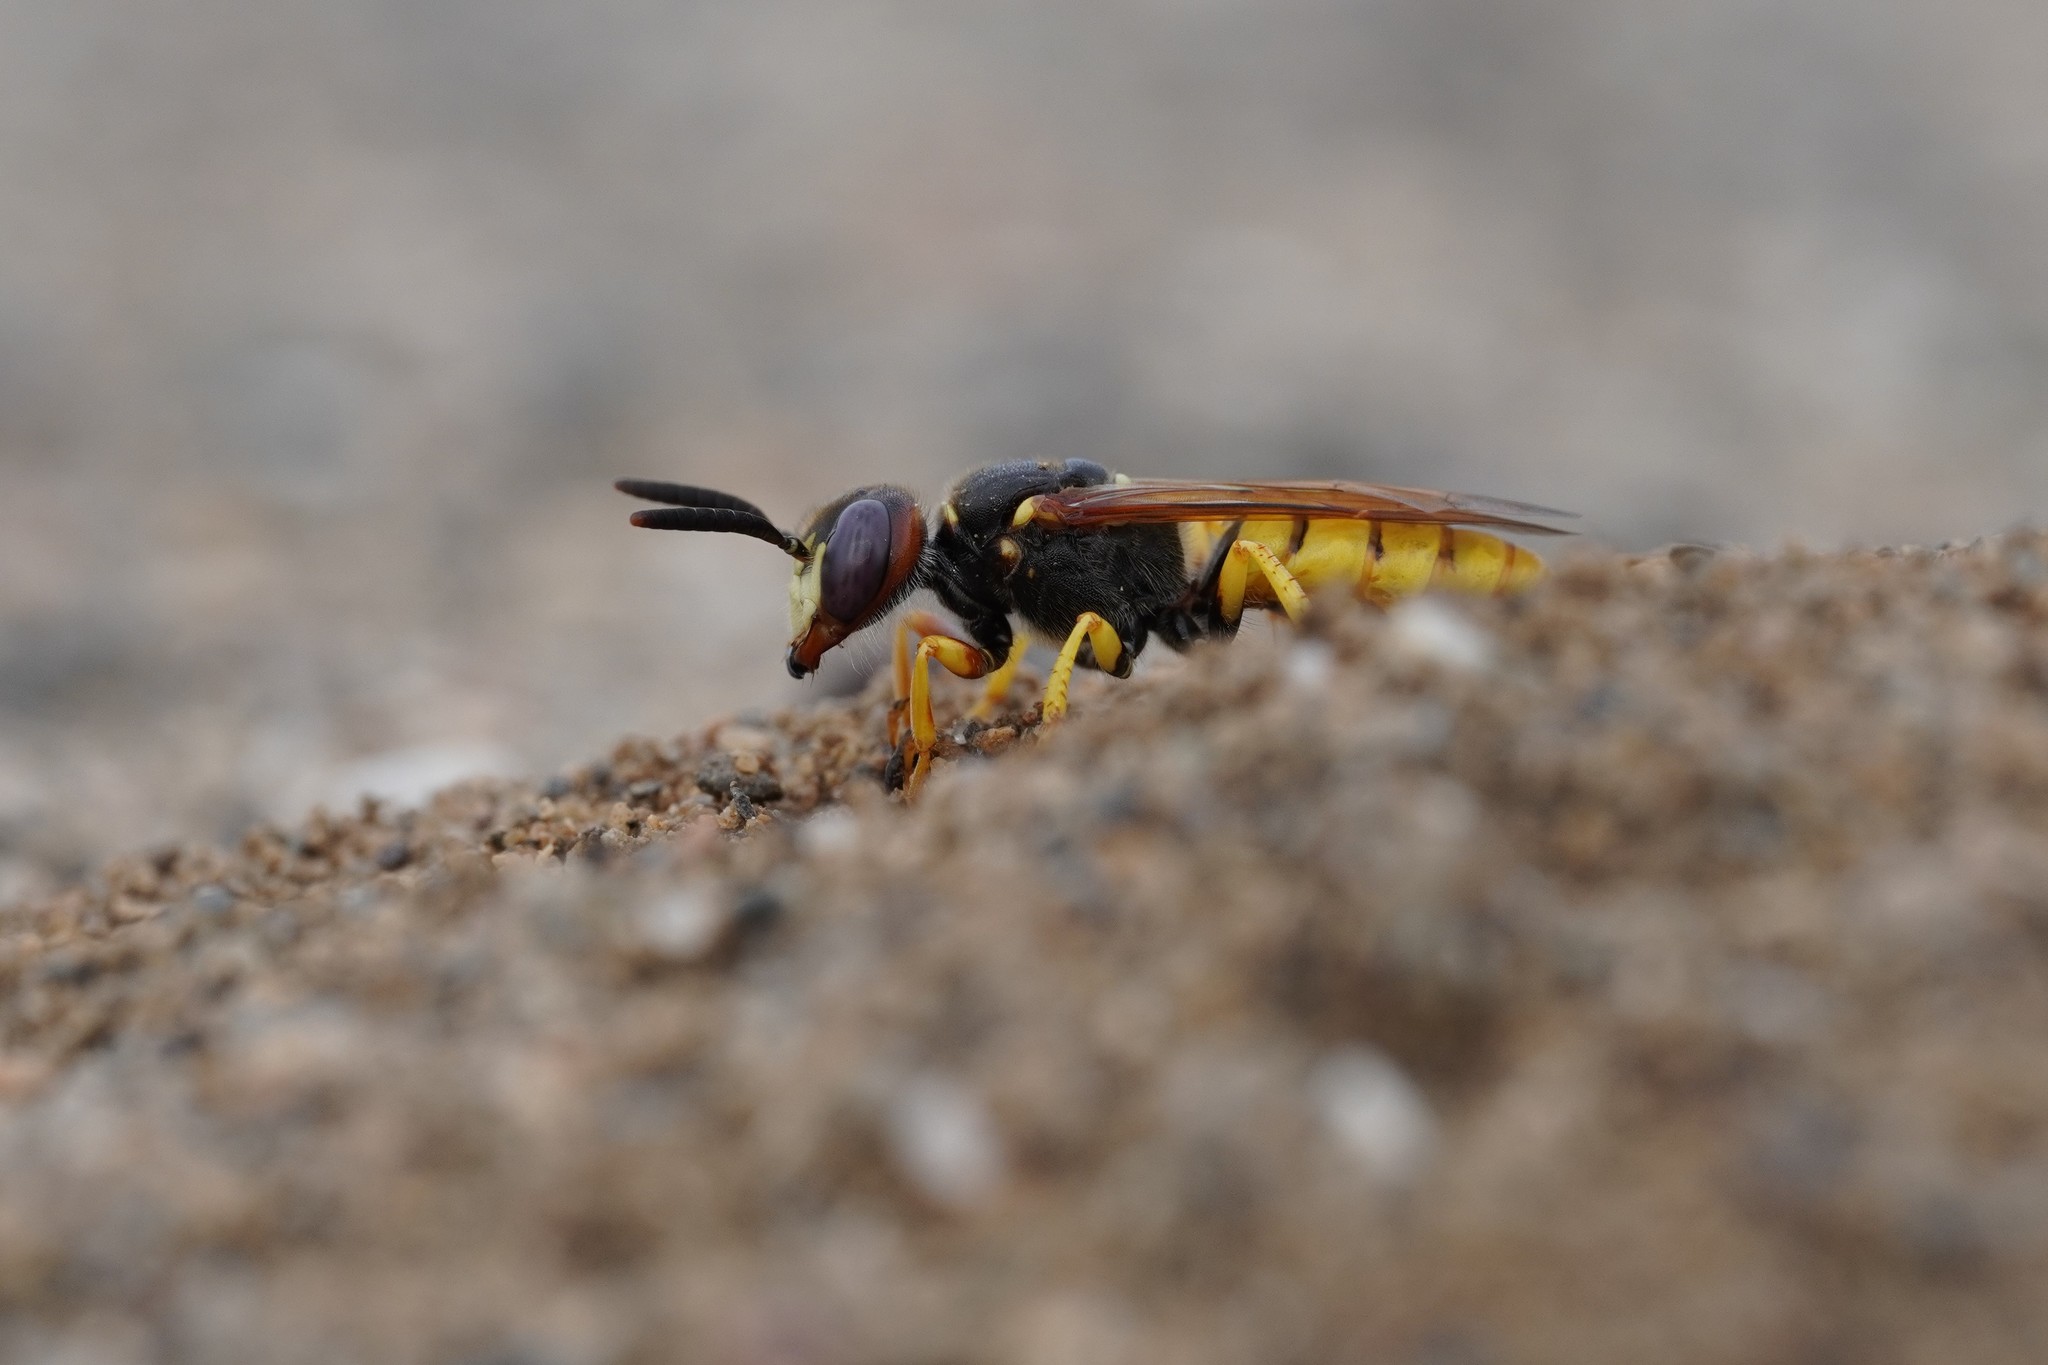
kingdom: Animalia
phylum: Arthropoda
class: Insecta
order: Hymenoptera
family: Crabronidae
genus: Philanthus
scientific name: Philanthus triangulum
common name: Bee wolf
